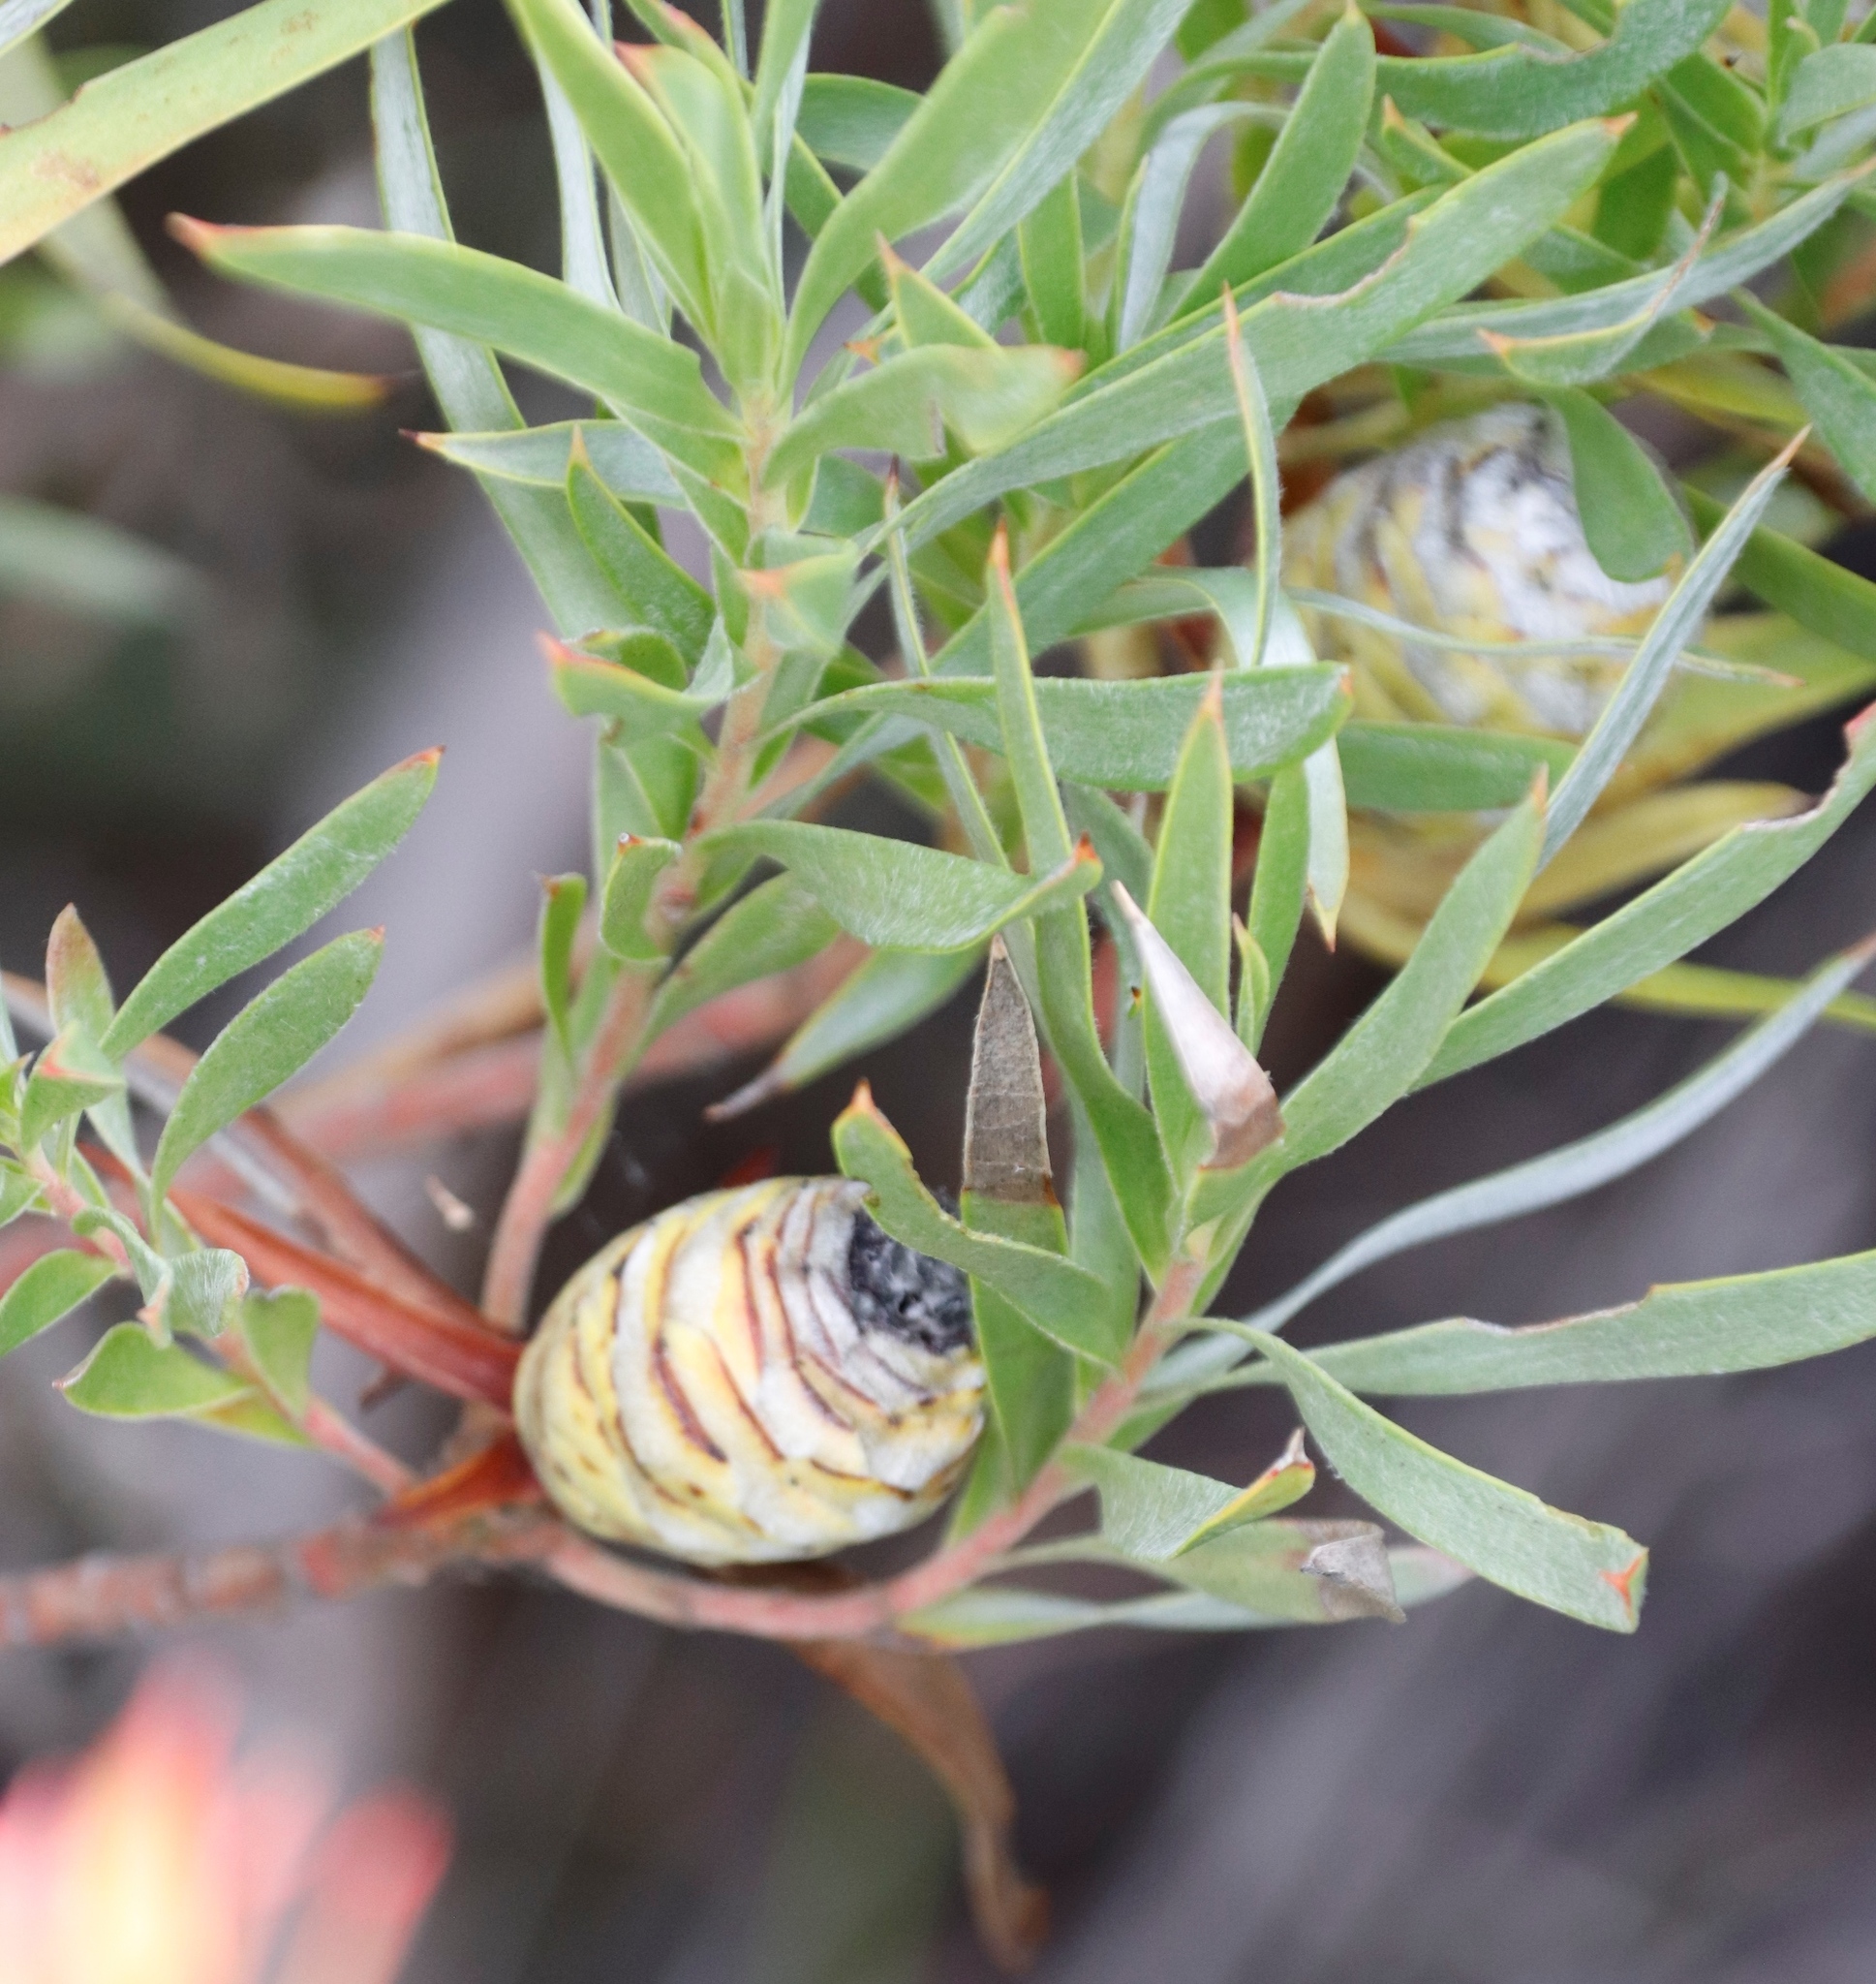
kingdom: Plantae
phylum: Tracheophyta
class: Magnoliopsida
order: Proteales
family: Proteaceae
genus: Leucadendron
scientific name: Leucadendron xanthoconus
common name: Sickle-leaf conebush
